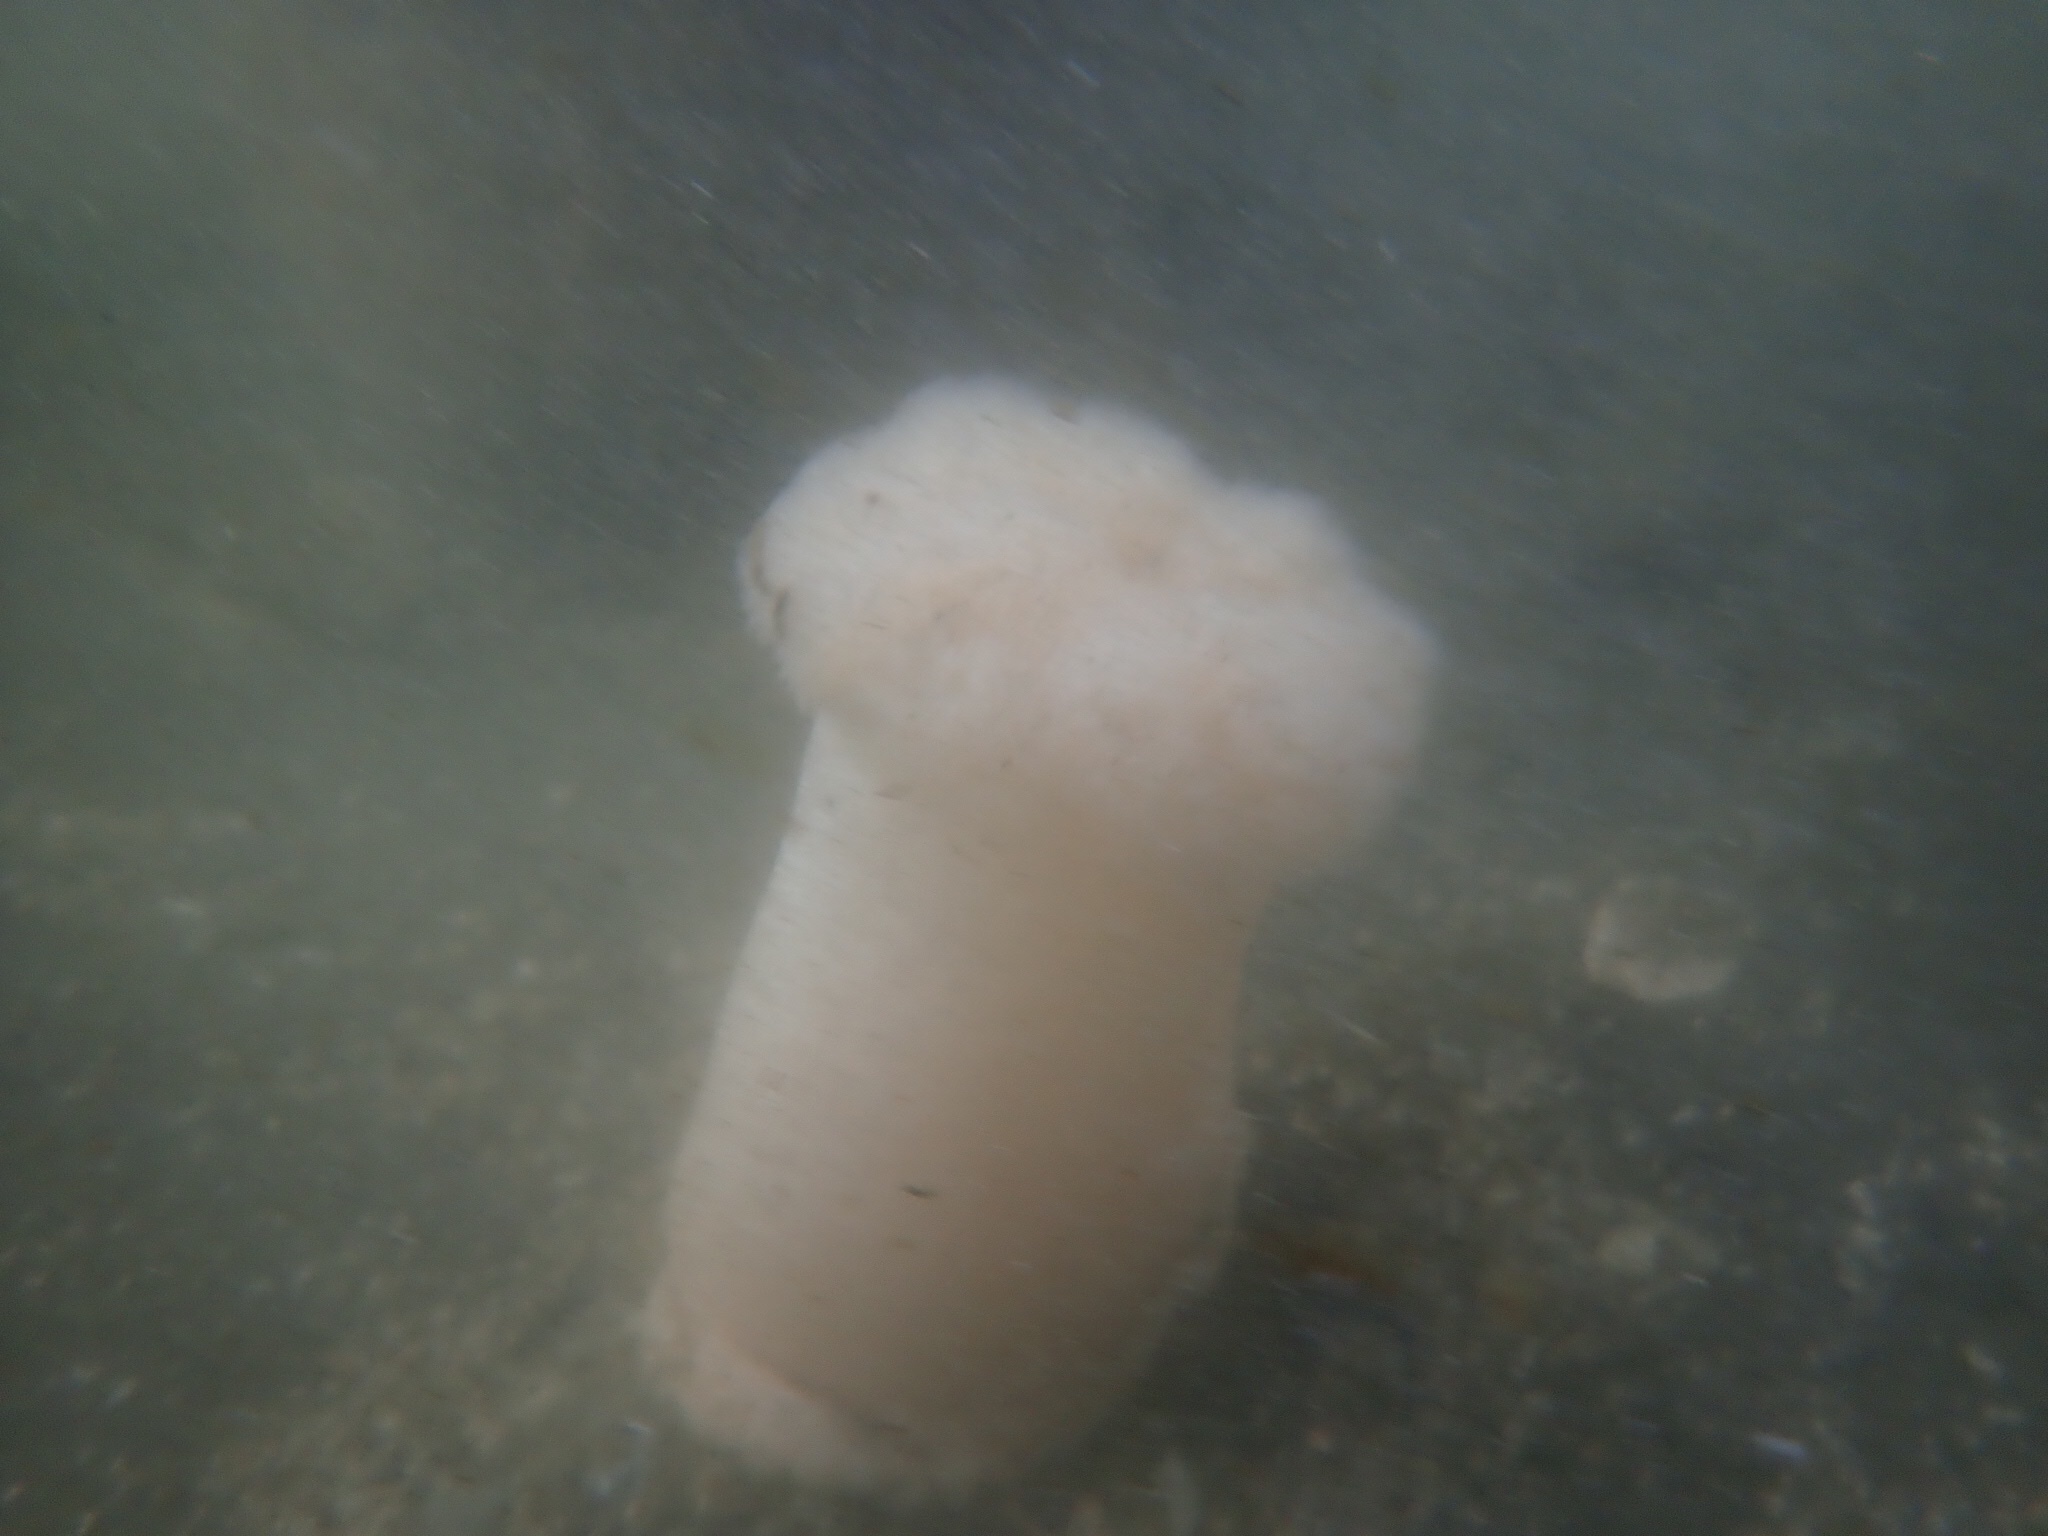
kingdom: Animalia
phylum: Cnidaria
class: Anthozoa
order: Actiniaria
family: Metridiidae
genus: Metridium
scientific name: Metridium farcimen
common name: Gigantic anemone
